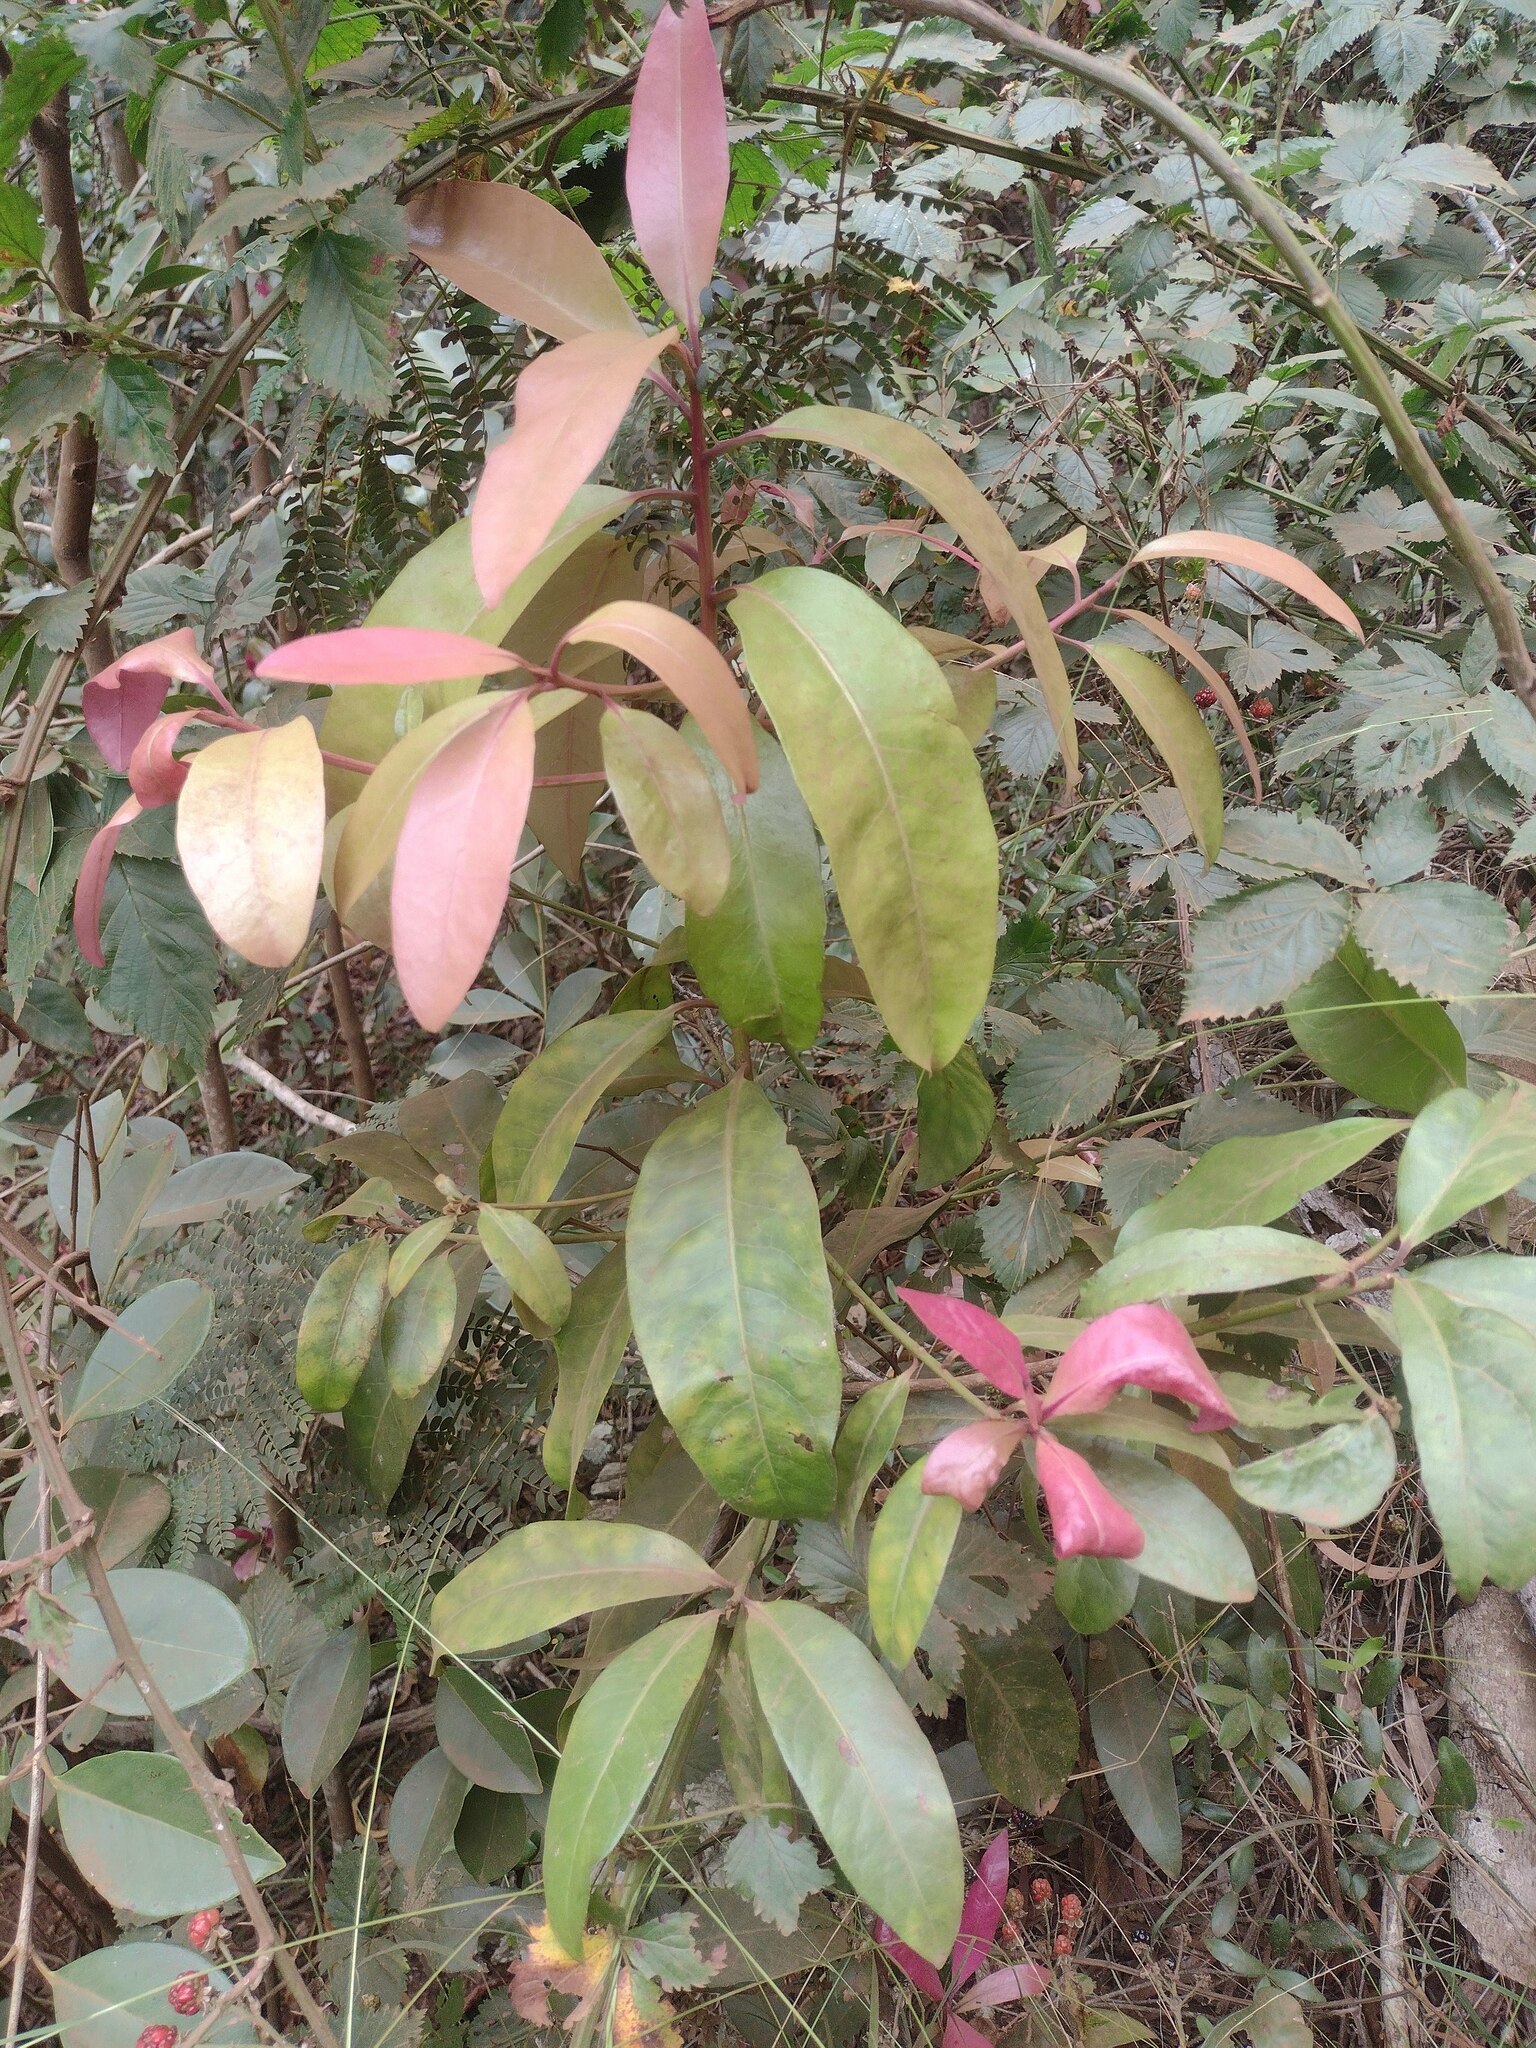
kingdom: Plantae
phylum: Tracheophyta
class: Magnoliopsida
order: Ericales
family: Primulaceae
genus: Myrsine
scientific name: Myrsine lanaiensis
